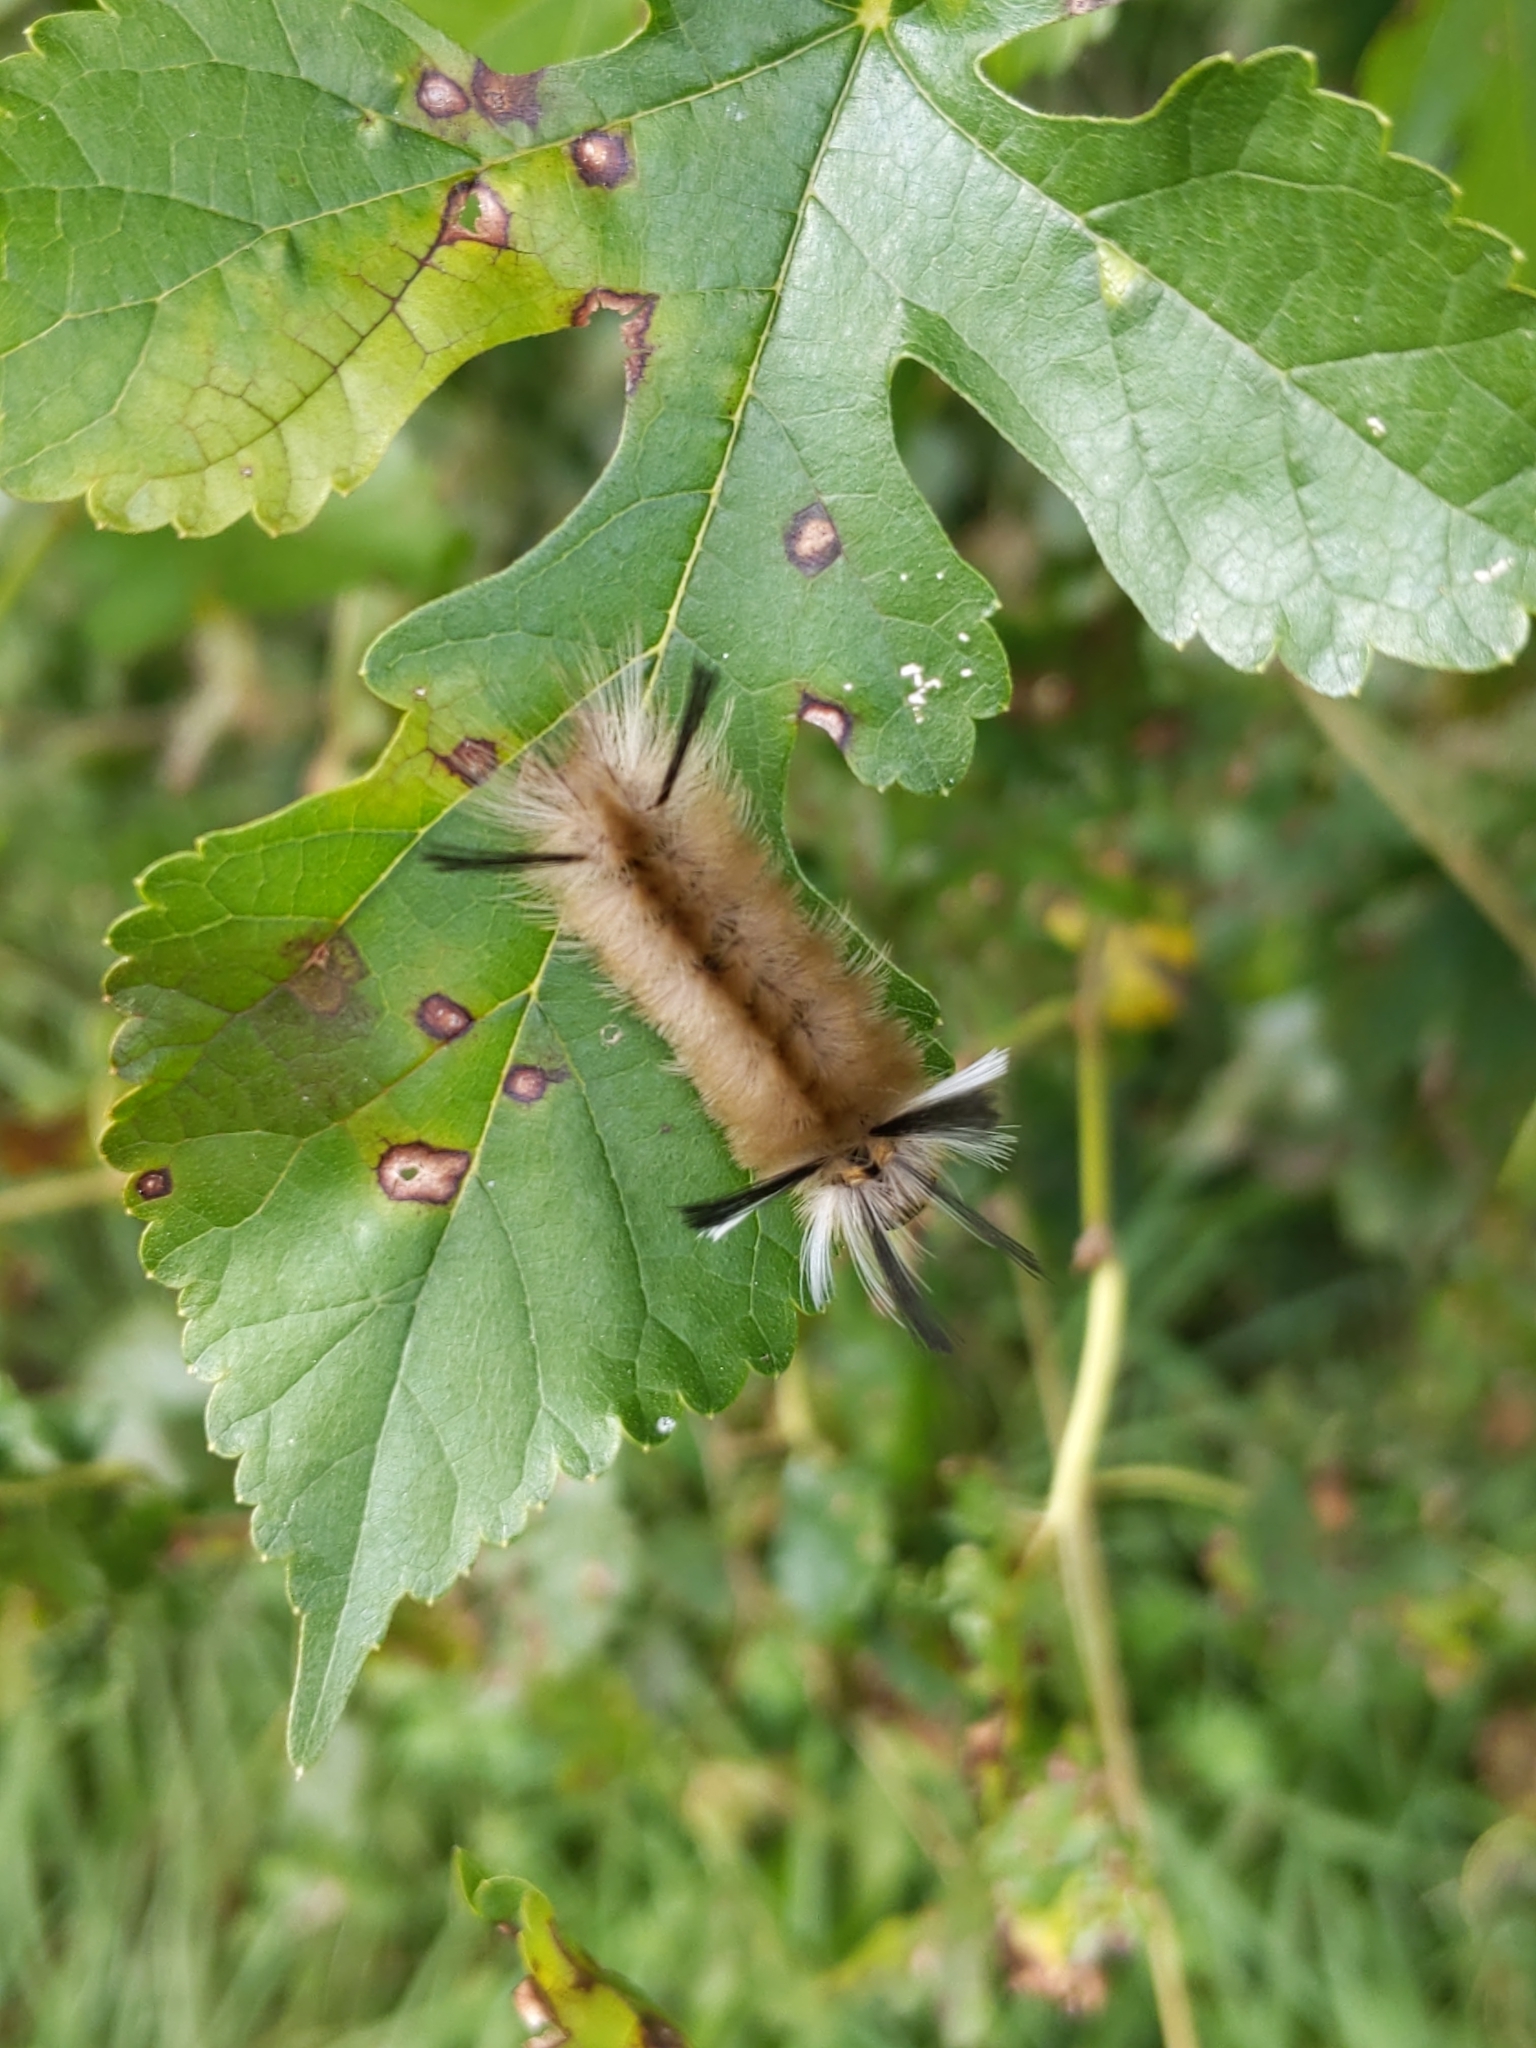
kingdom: Animalia
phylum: Arthropoda
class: Insecta
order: Lepidoptera
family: Erebidae
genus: Halysidota
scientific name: Halysidota tessellaris
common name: Banded tussock moth
